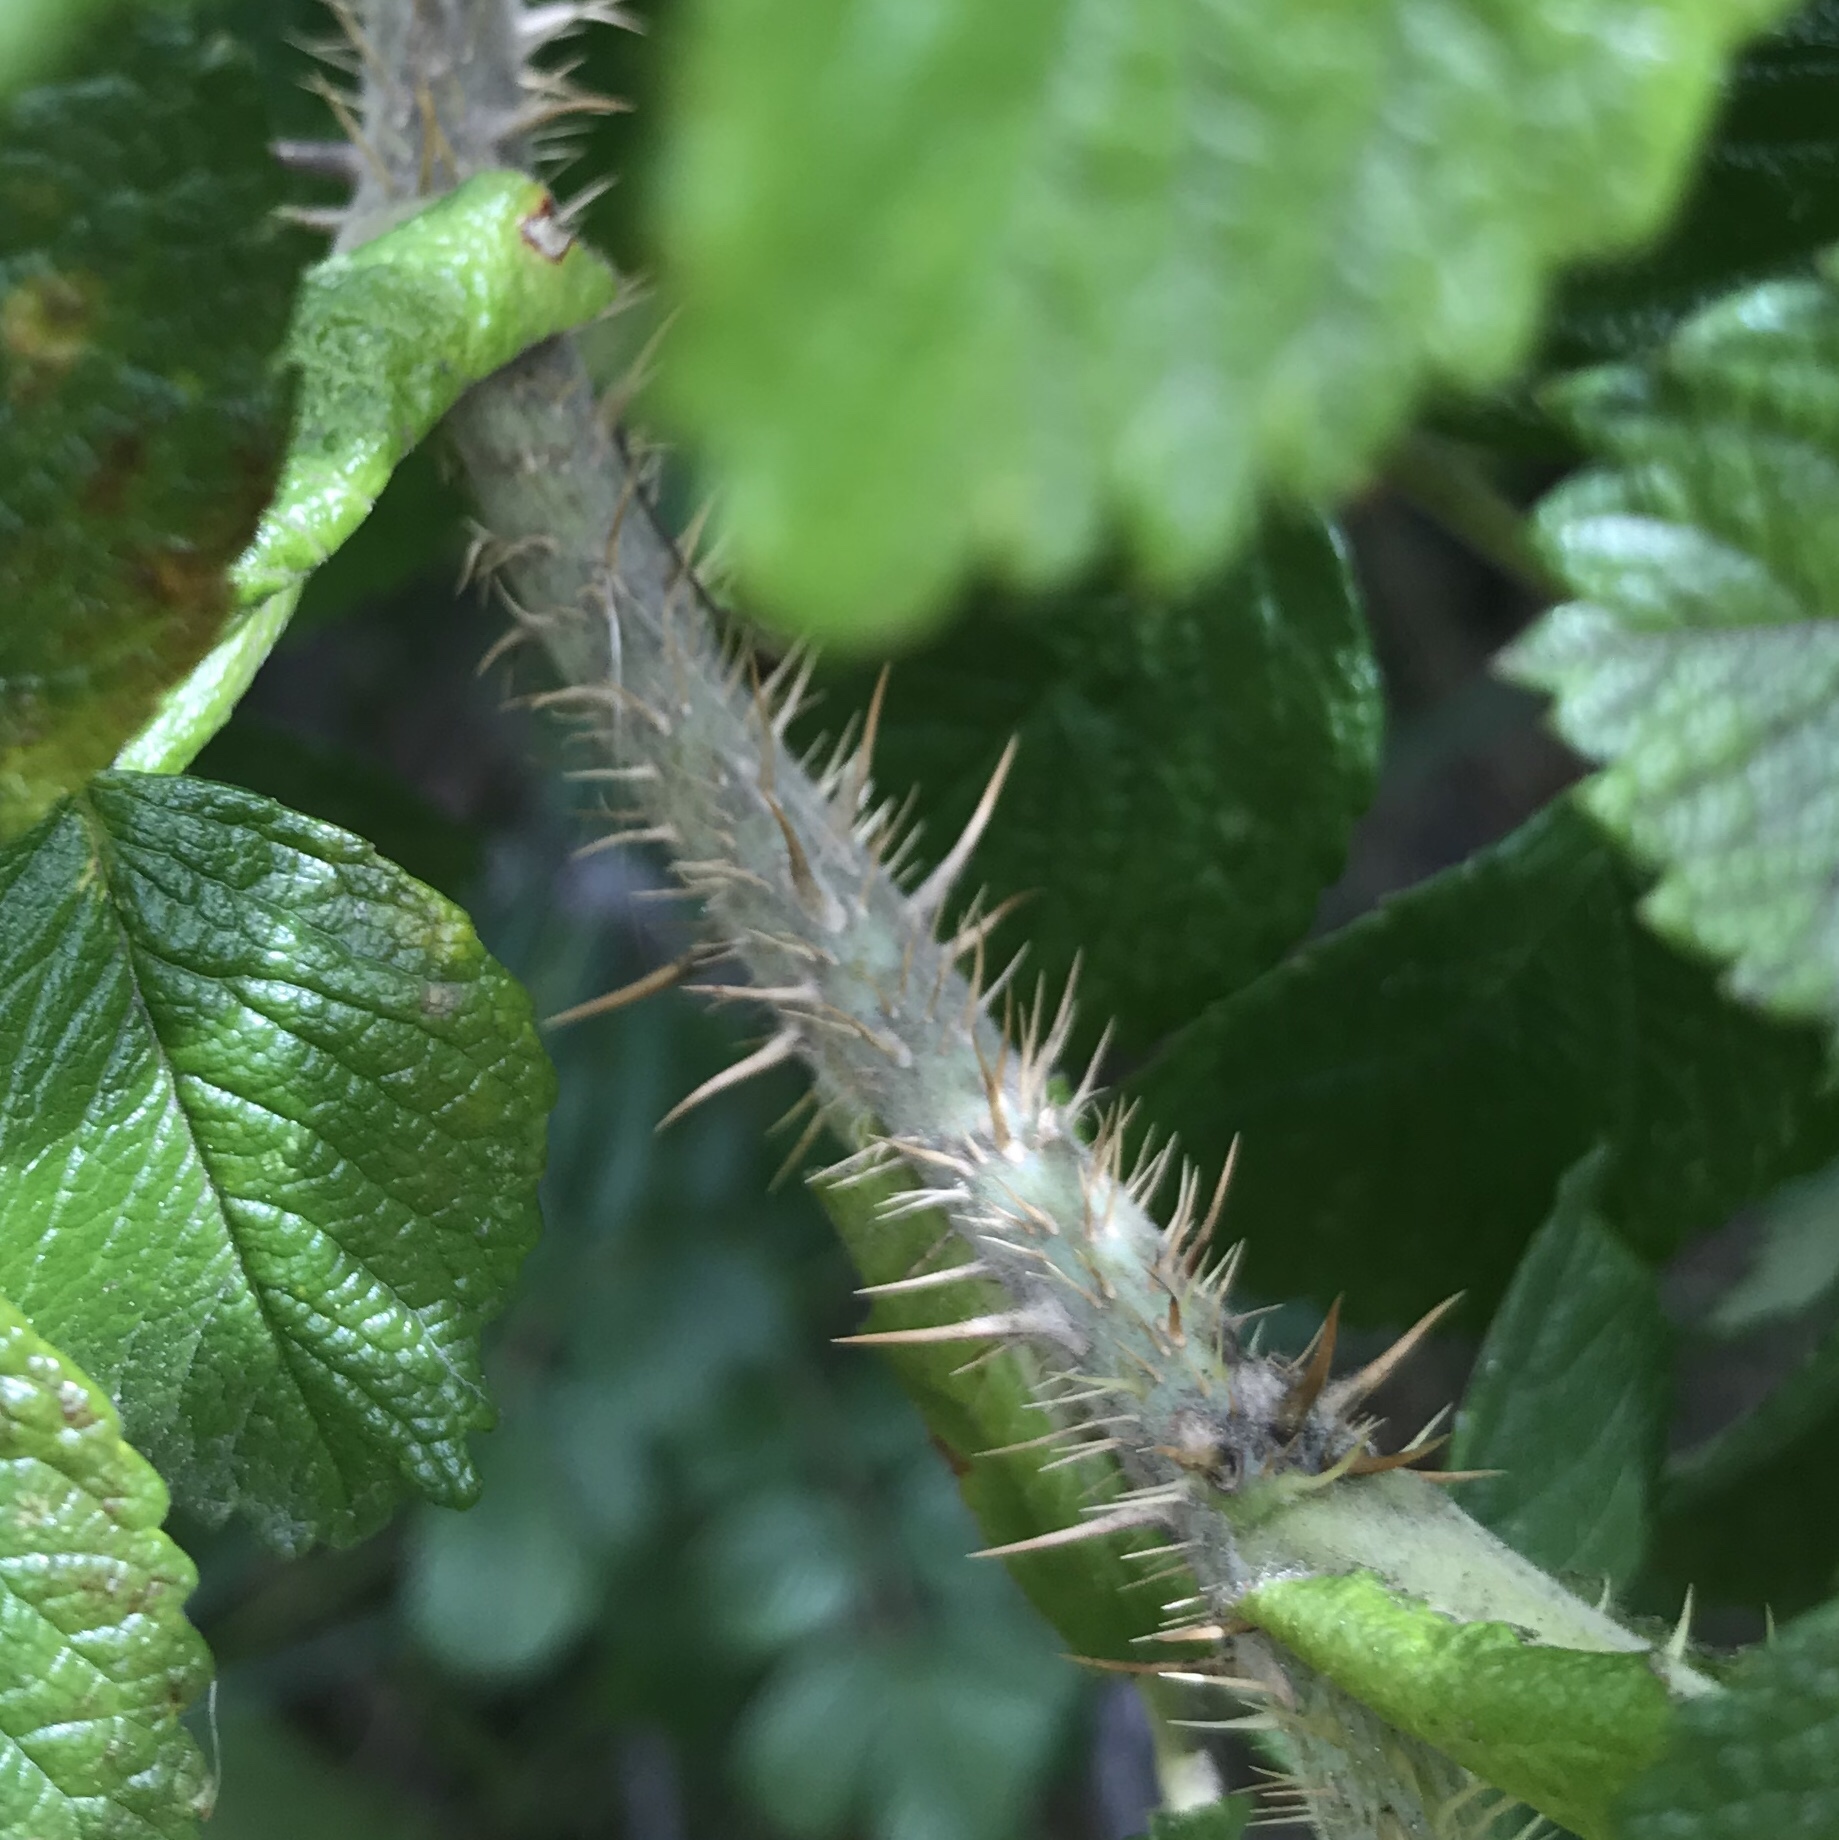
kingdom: Plantae
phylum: Tracheophyta
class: Magnoliopsida
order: Rosales
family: Rosaceae
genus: Rosa
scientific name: Rosa rugosa
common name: Japanese rose
